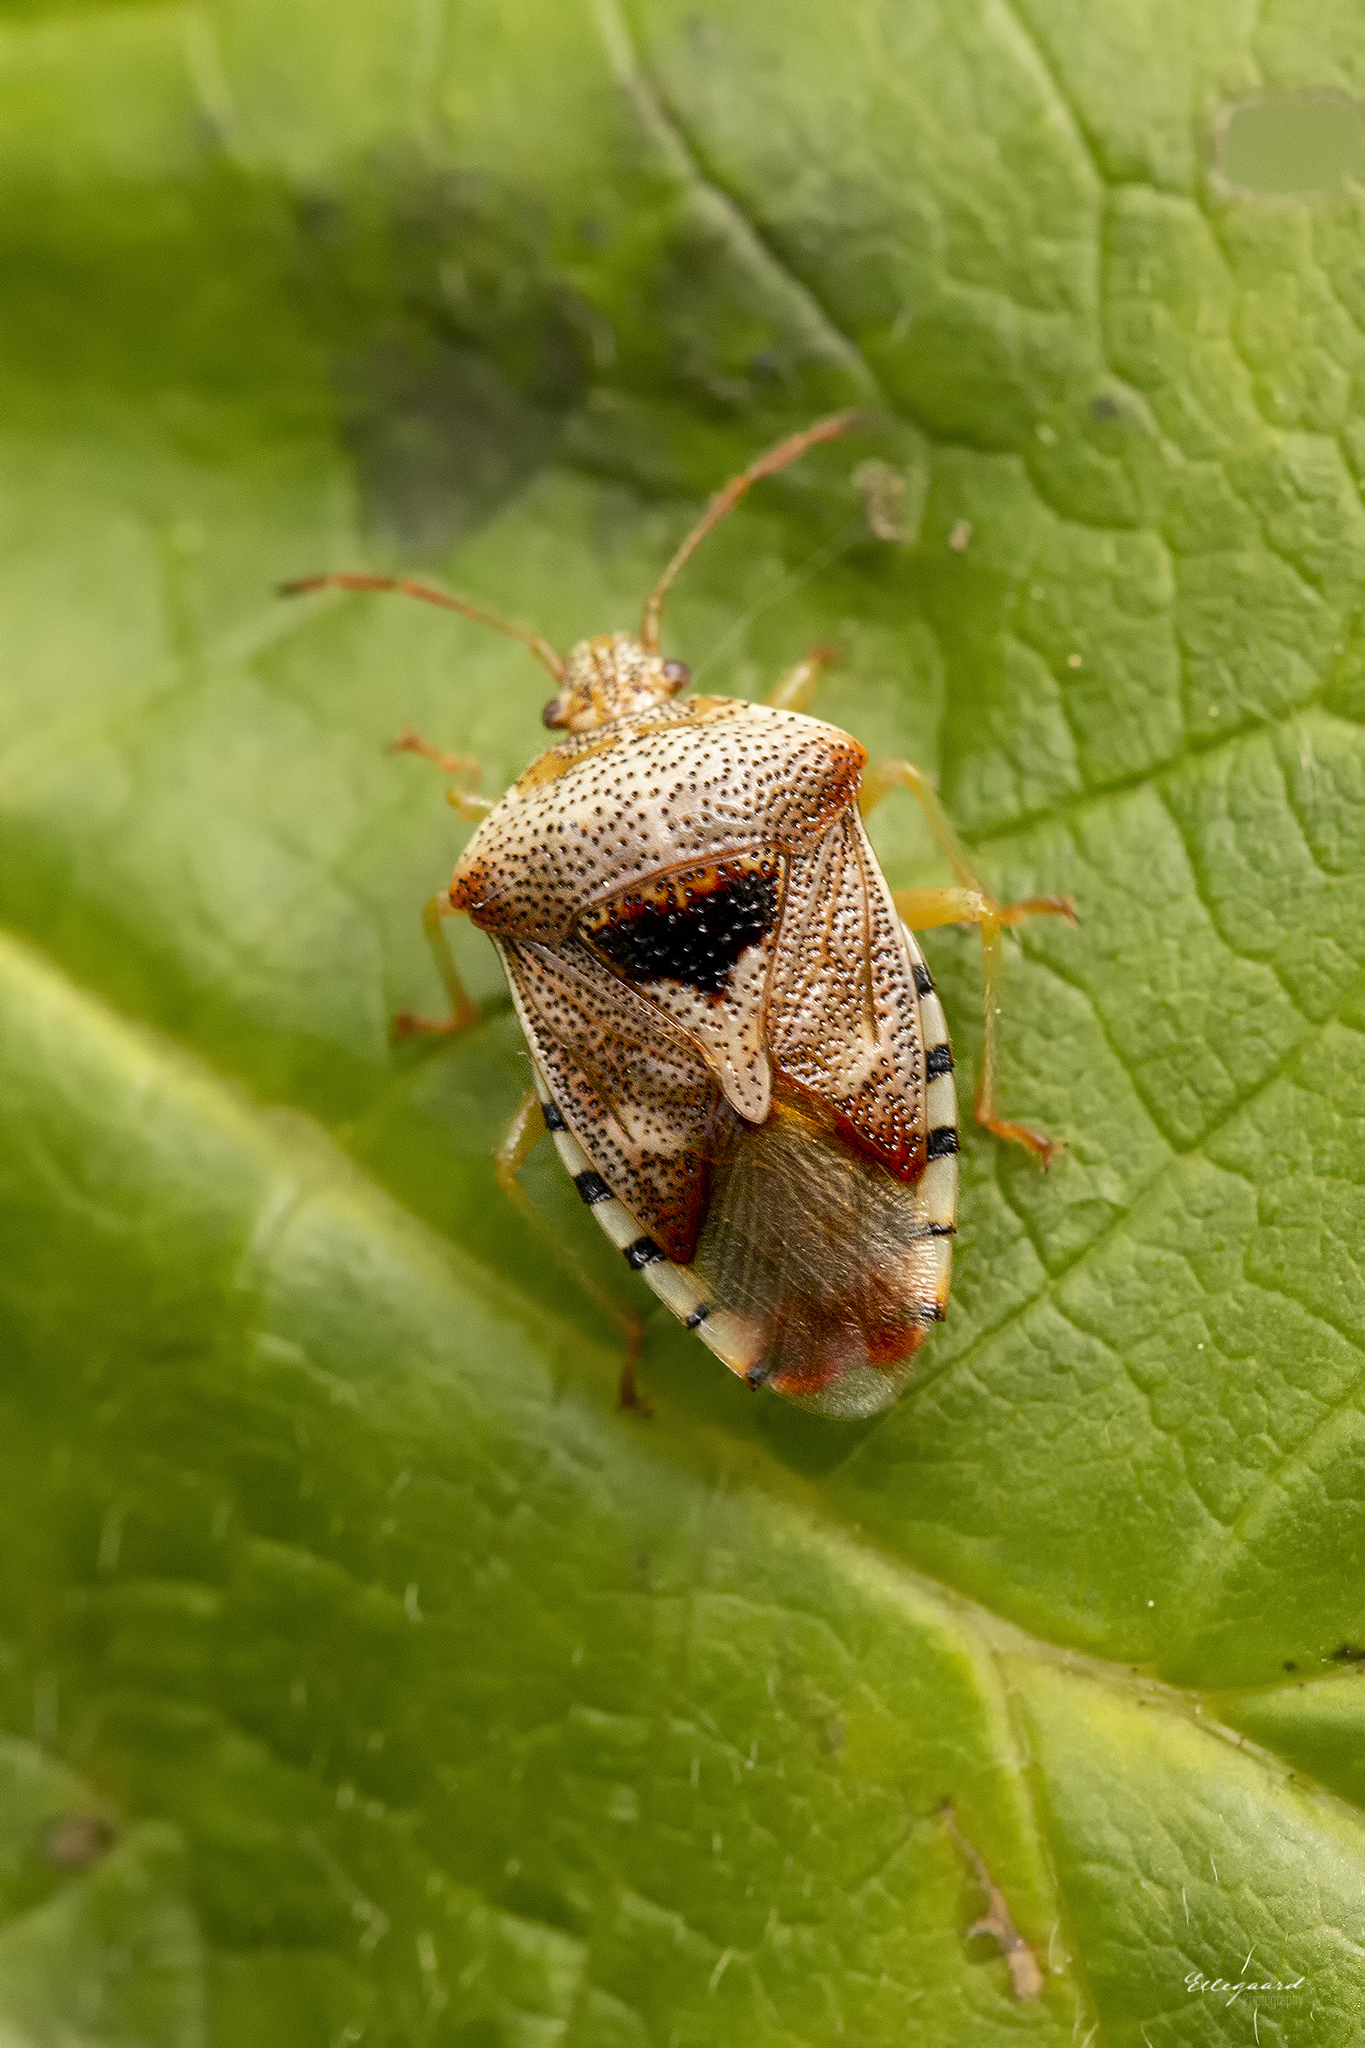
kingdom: Animalia
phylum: Arthropoda
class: Insecta
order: Hemiptera
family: Acanthosomatidae
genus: Elasmucha
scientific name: Elasmucha grisea
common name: Parent bug
